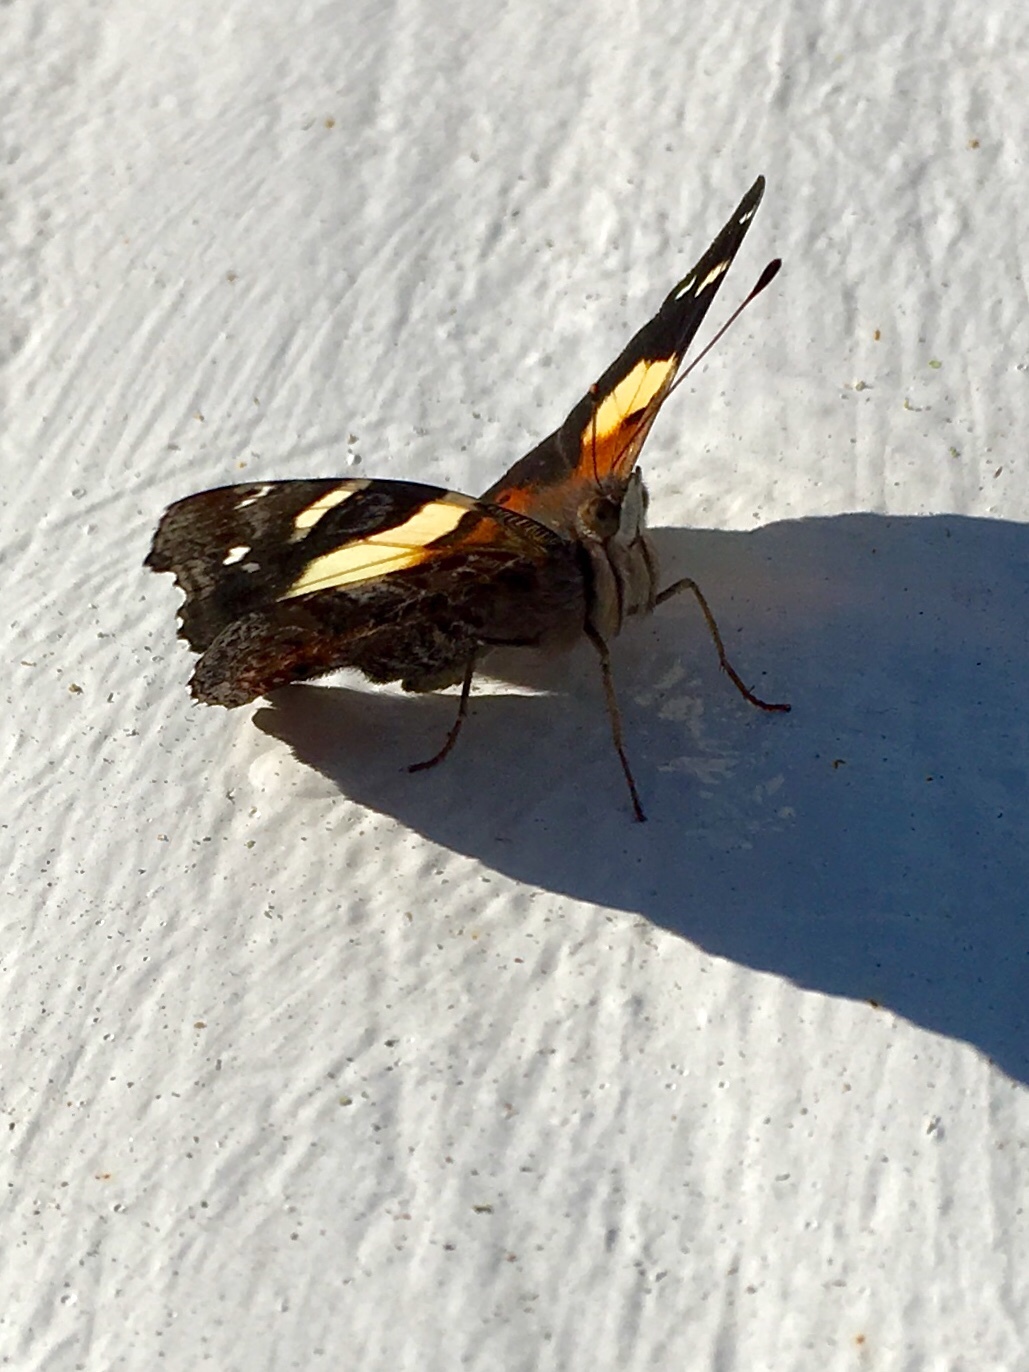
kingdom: Animalia
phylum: Arthropoda
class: Insecta
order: Lepidoptera
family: Nymphalidae
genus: Vanessa
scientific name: Vanessa itea
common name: Yellow admiral
